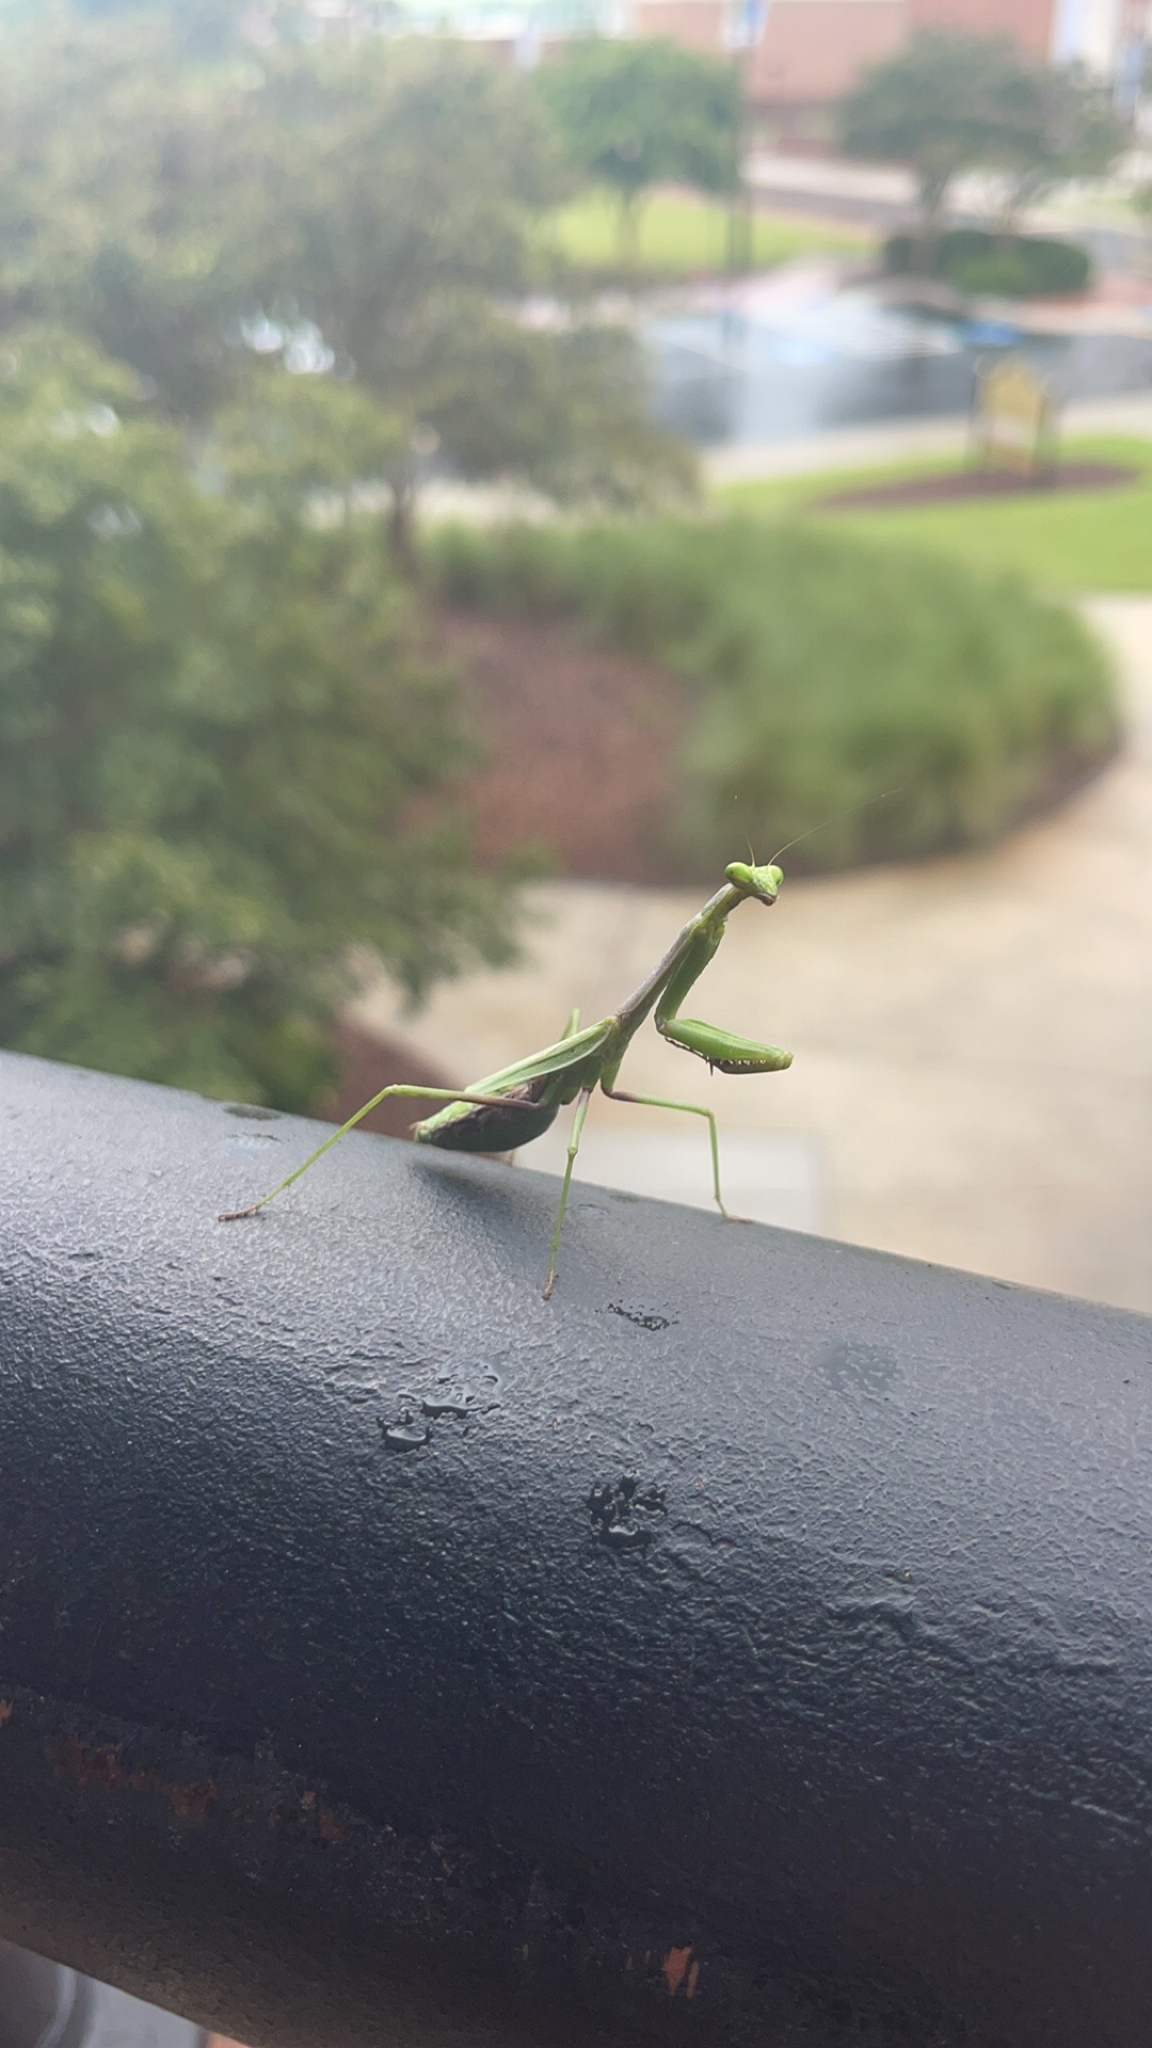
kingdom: Animalia
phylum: Arthropoda
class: Insecta
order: Mantodea
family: Mantidae
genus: Stagmomantis
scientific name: Stagmomantis carolina
